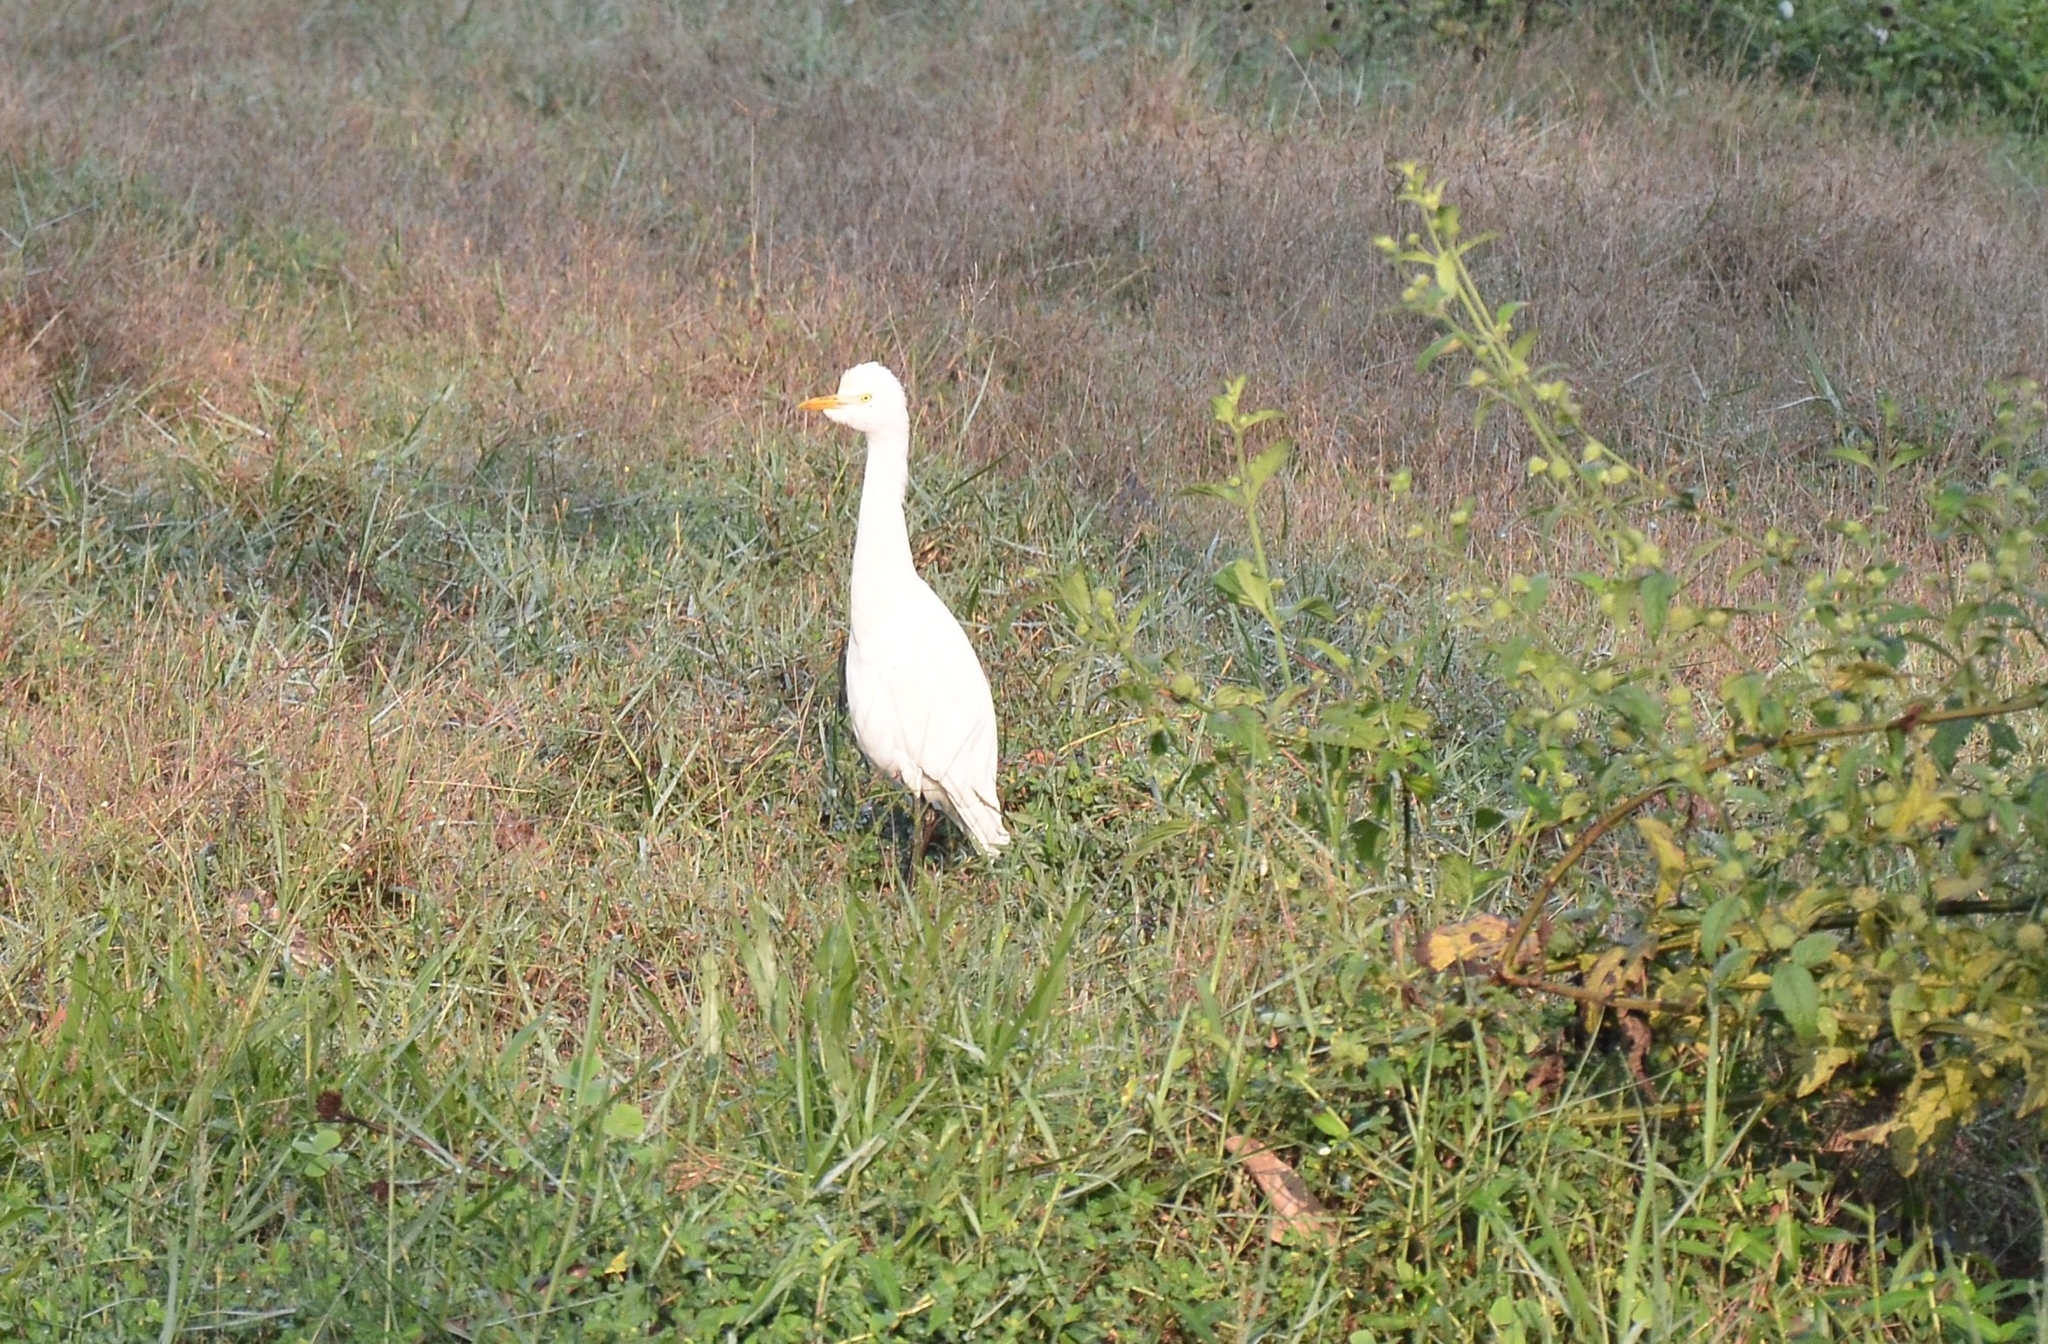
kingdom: Animalia
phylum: Chordata
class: Aves
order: Pelecaniformes
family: Ardeidae
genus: Bubulcus
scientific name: Bubulcus coromandus
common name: Eastern cattle egret
